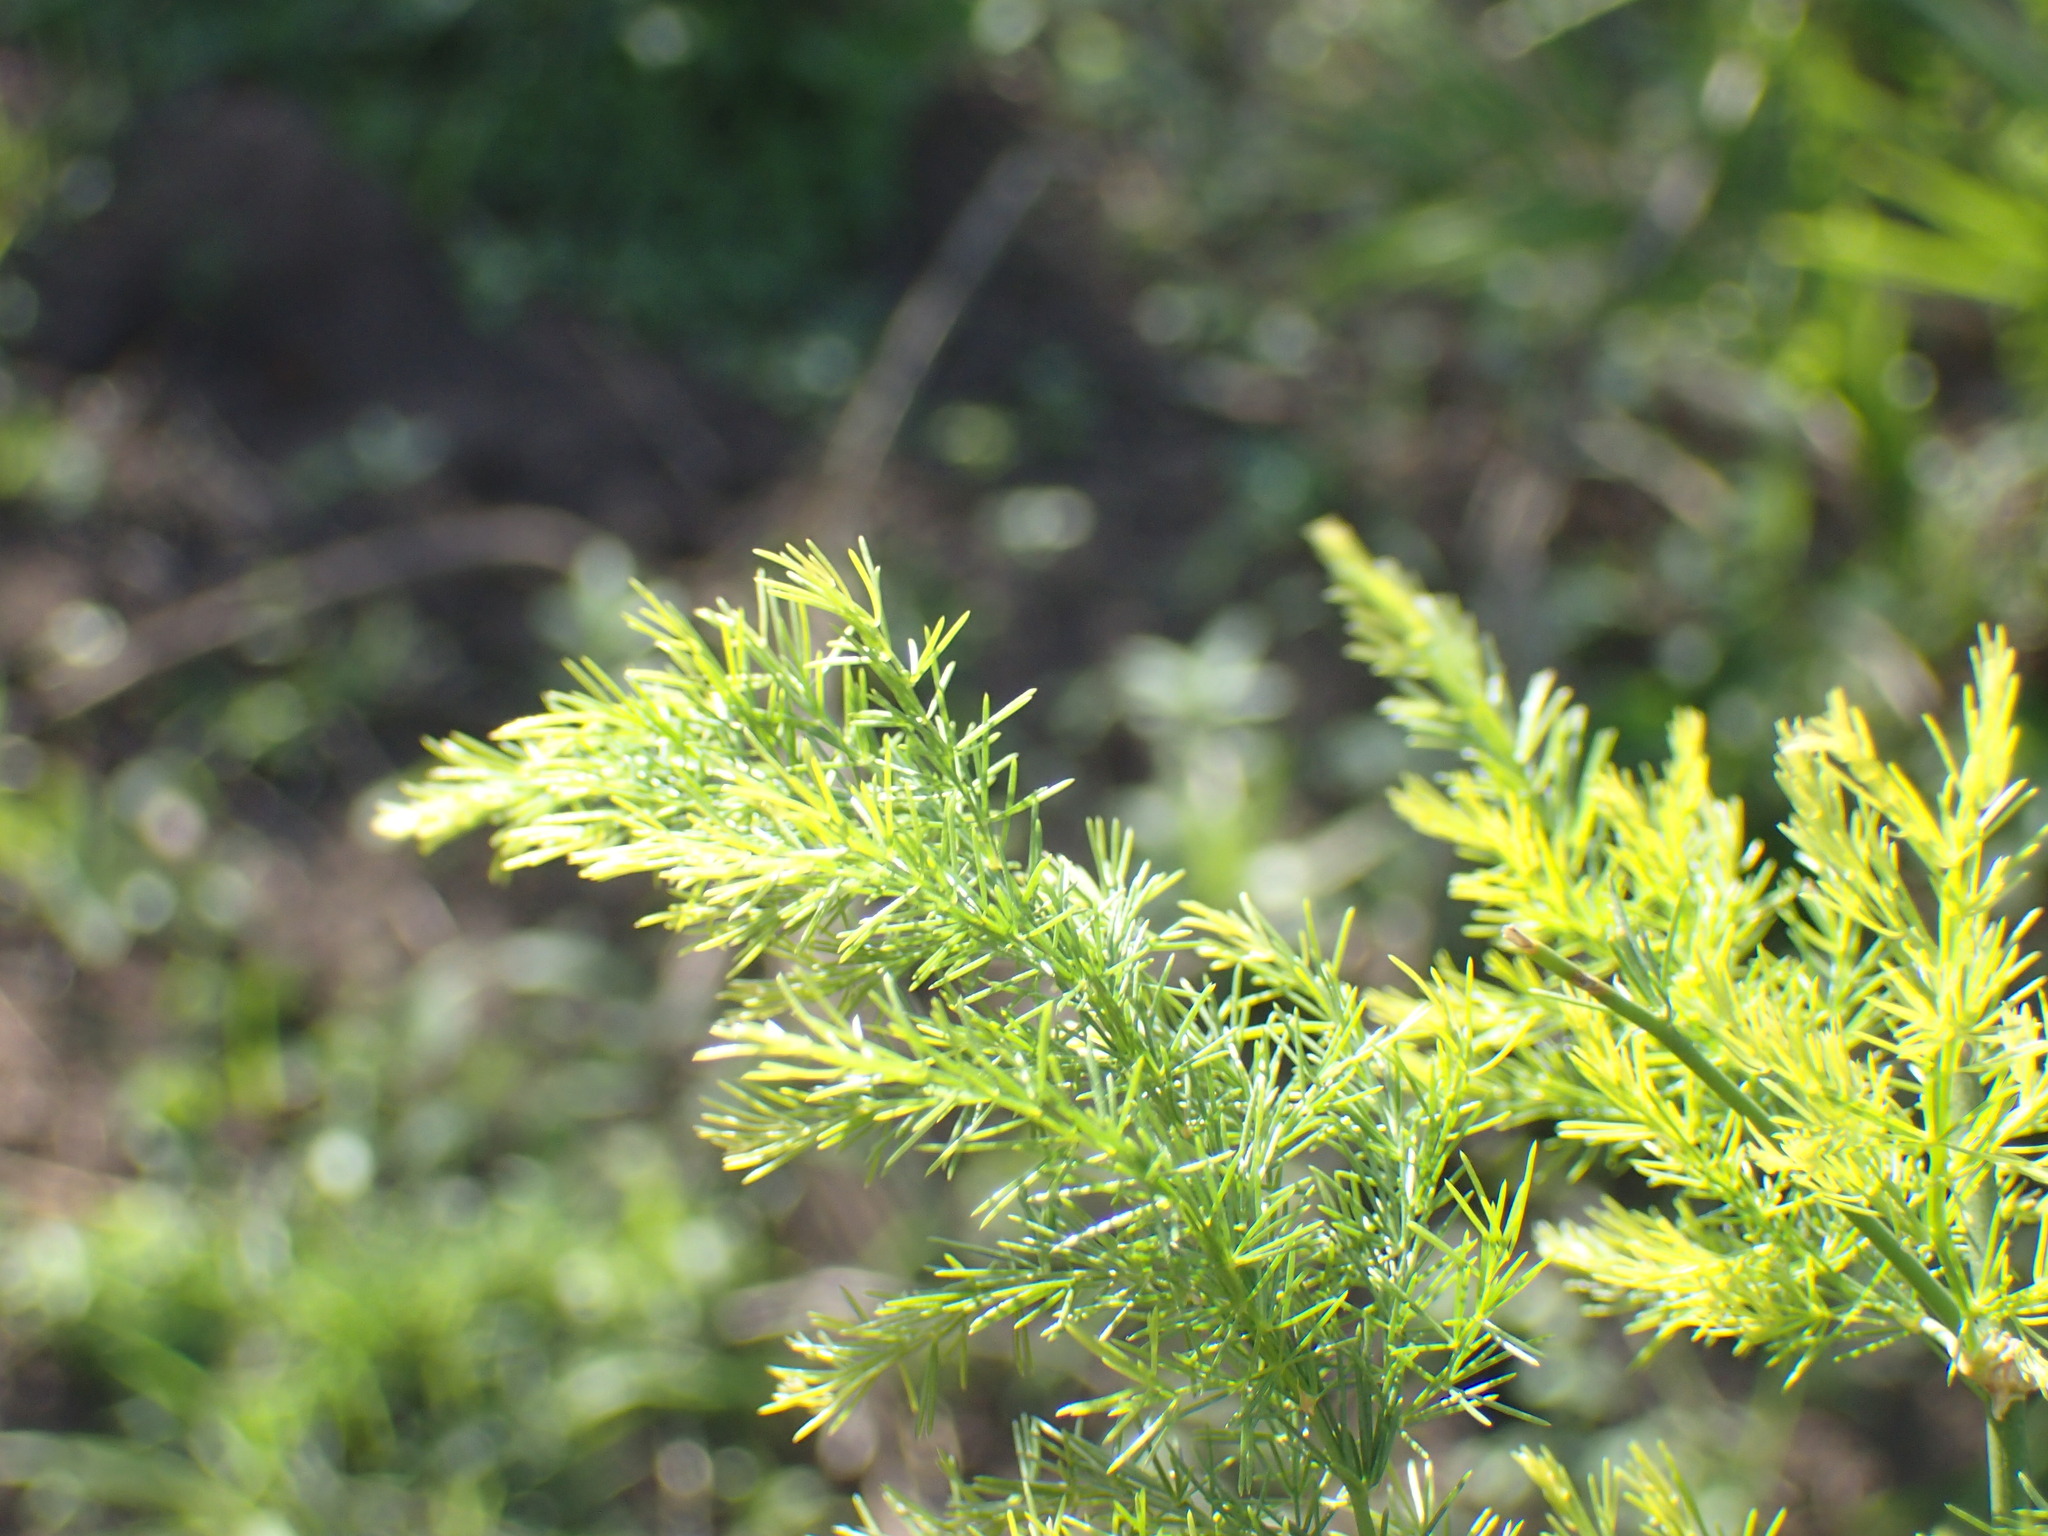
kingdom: Plantae
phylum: Tracheophyta
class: Liliopsida
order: Asparagales
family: Asparagaceae
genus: Asparagus
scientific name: Asparagus africanus
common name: Asparagus-fern
